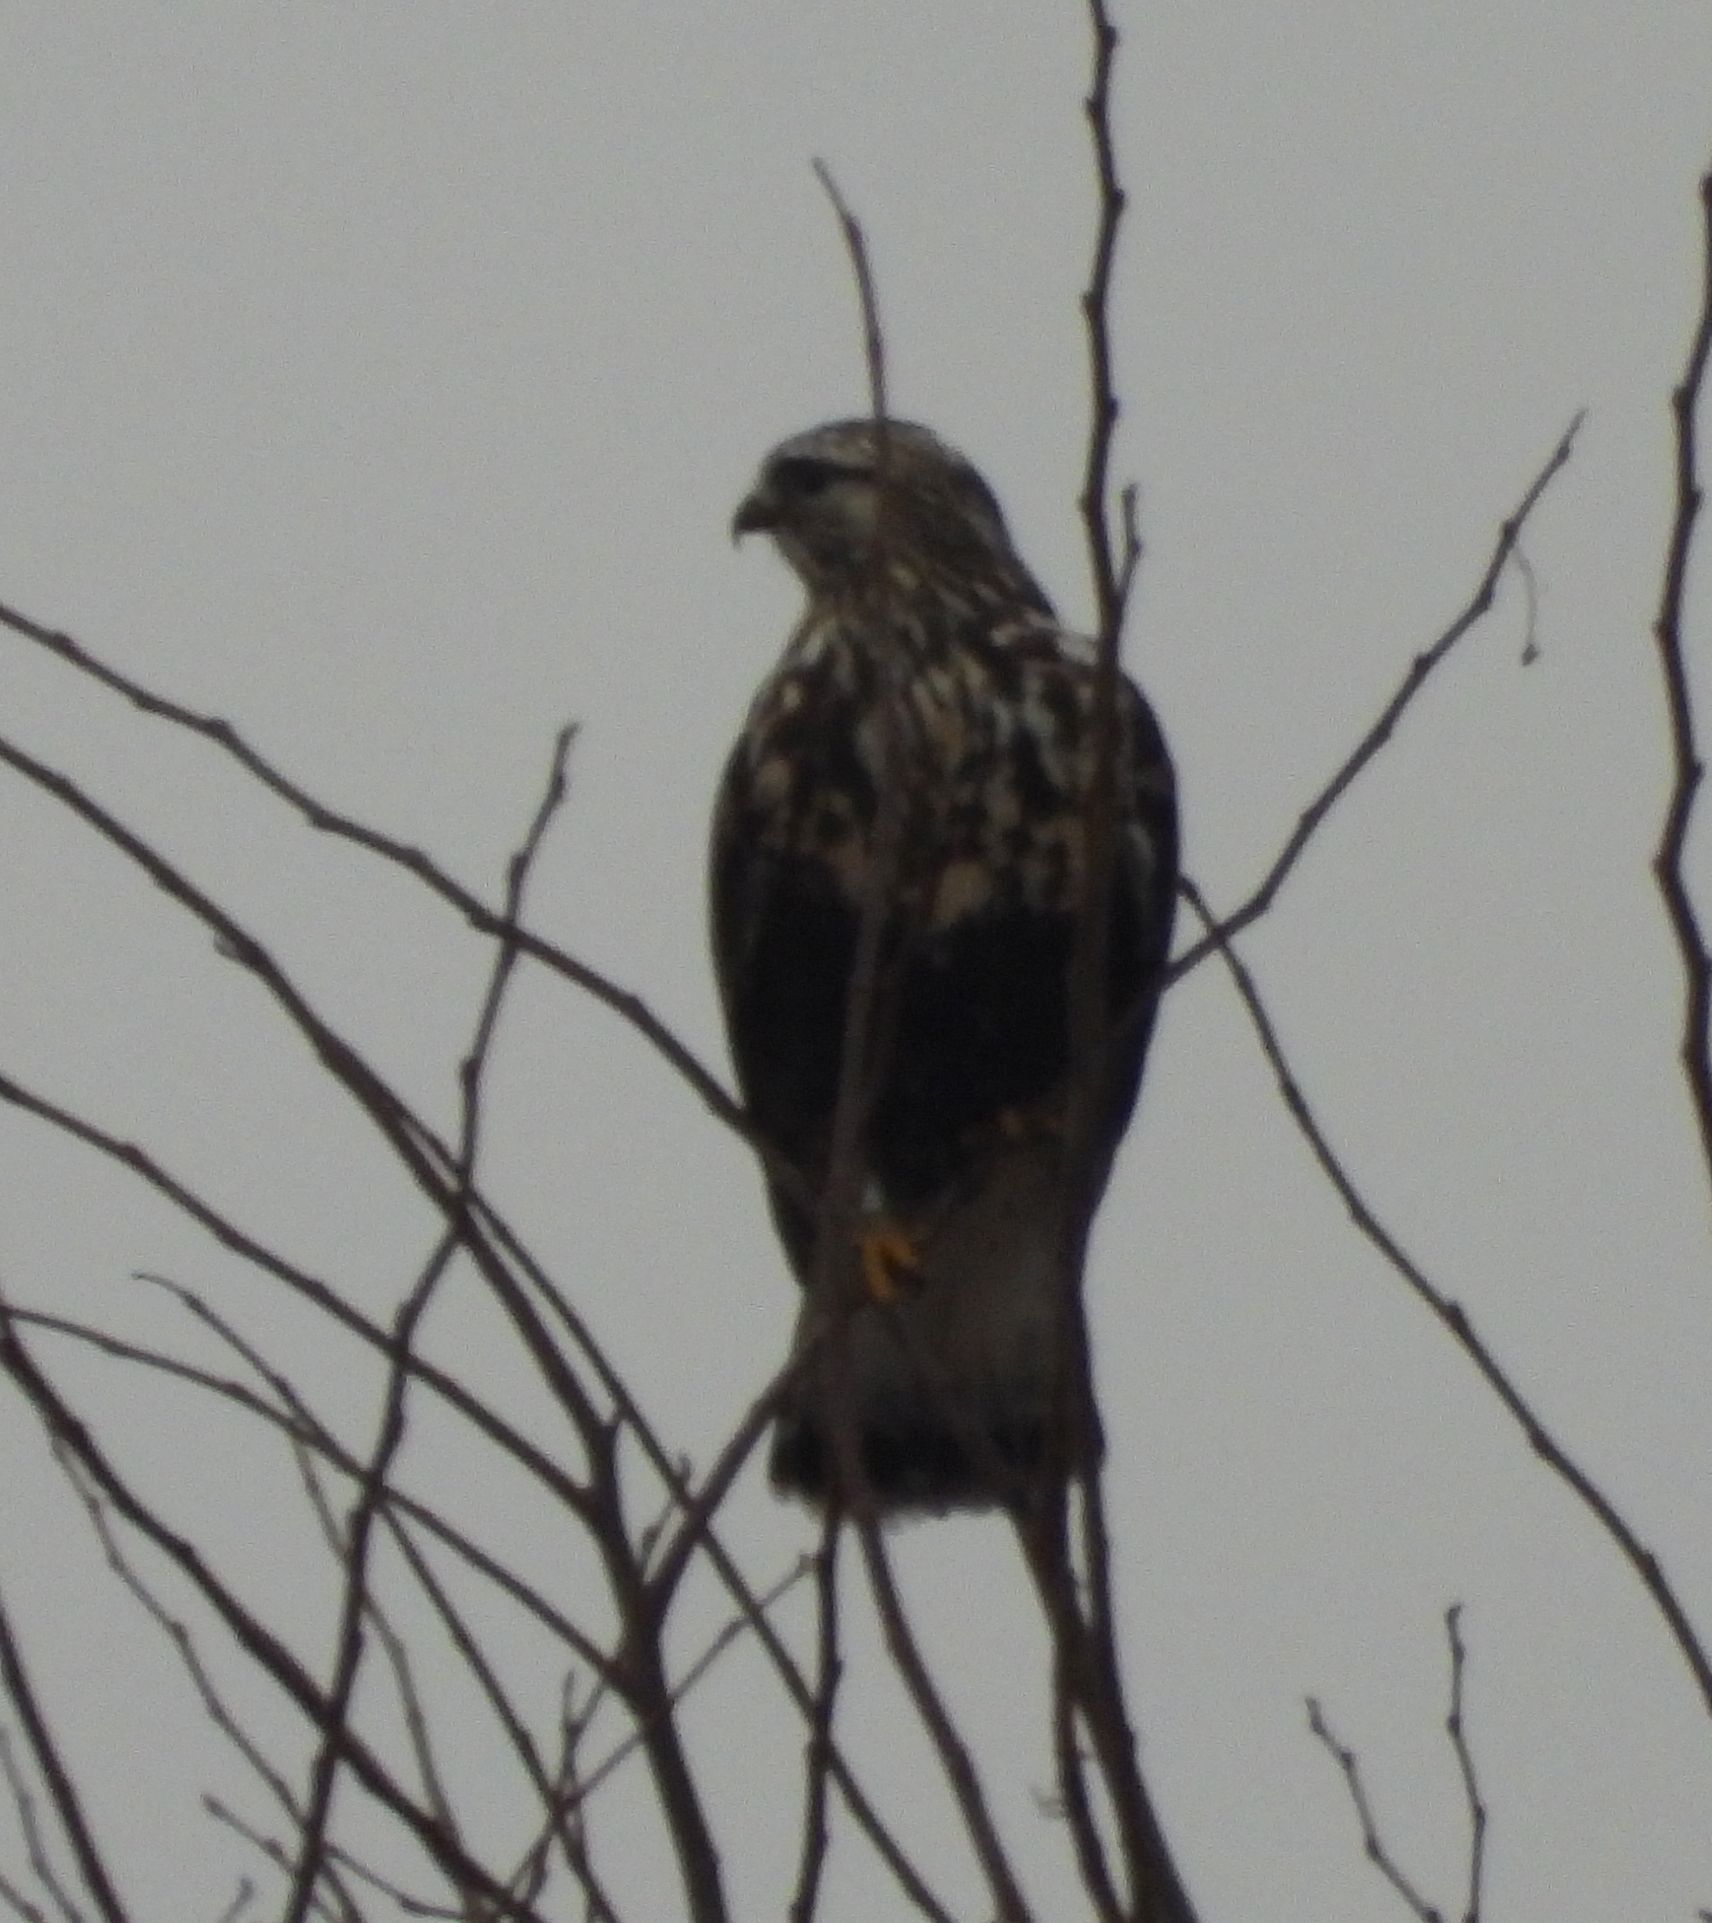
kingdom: Animalia
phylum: Chordata
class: Aves
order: Accipitriformes
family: Accipitridae
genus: Buteo
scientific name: Buteo lagopus
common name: Rough-legged buzzard
